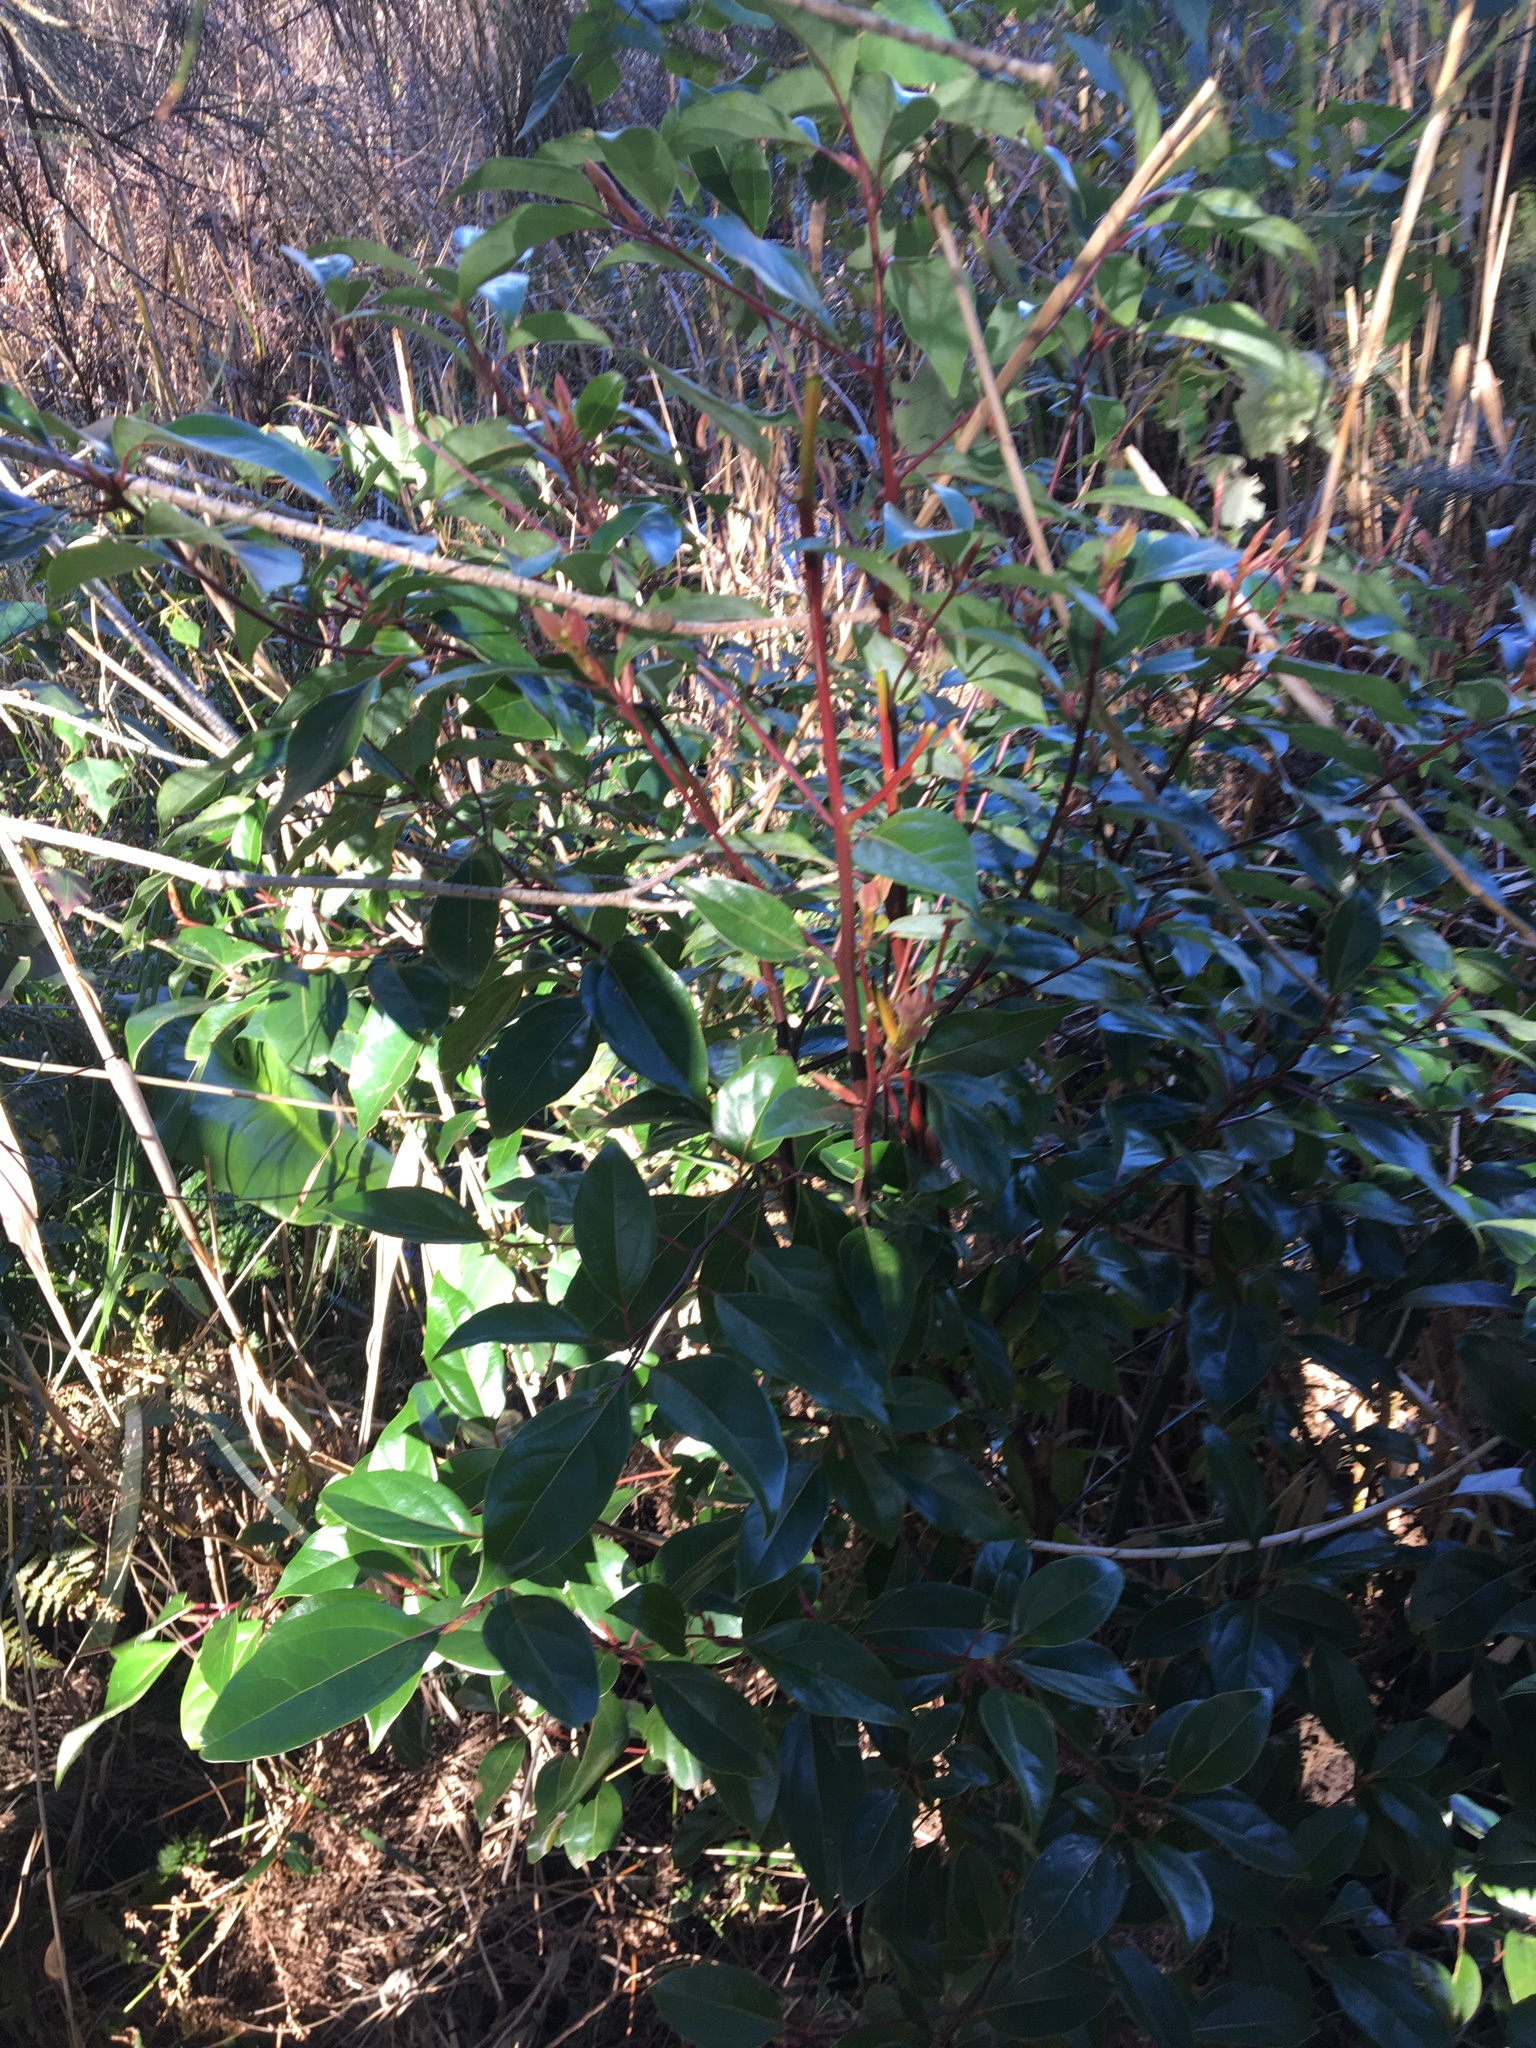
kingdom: Plantae
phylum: Tracheophyta
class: Magnoliopsida
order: Laurales
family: Lauraceae
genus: Cinnamomum
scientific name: Cinnamomum camphora
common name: Camphortree
